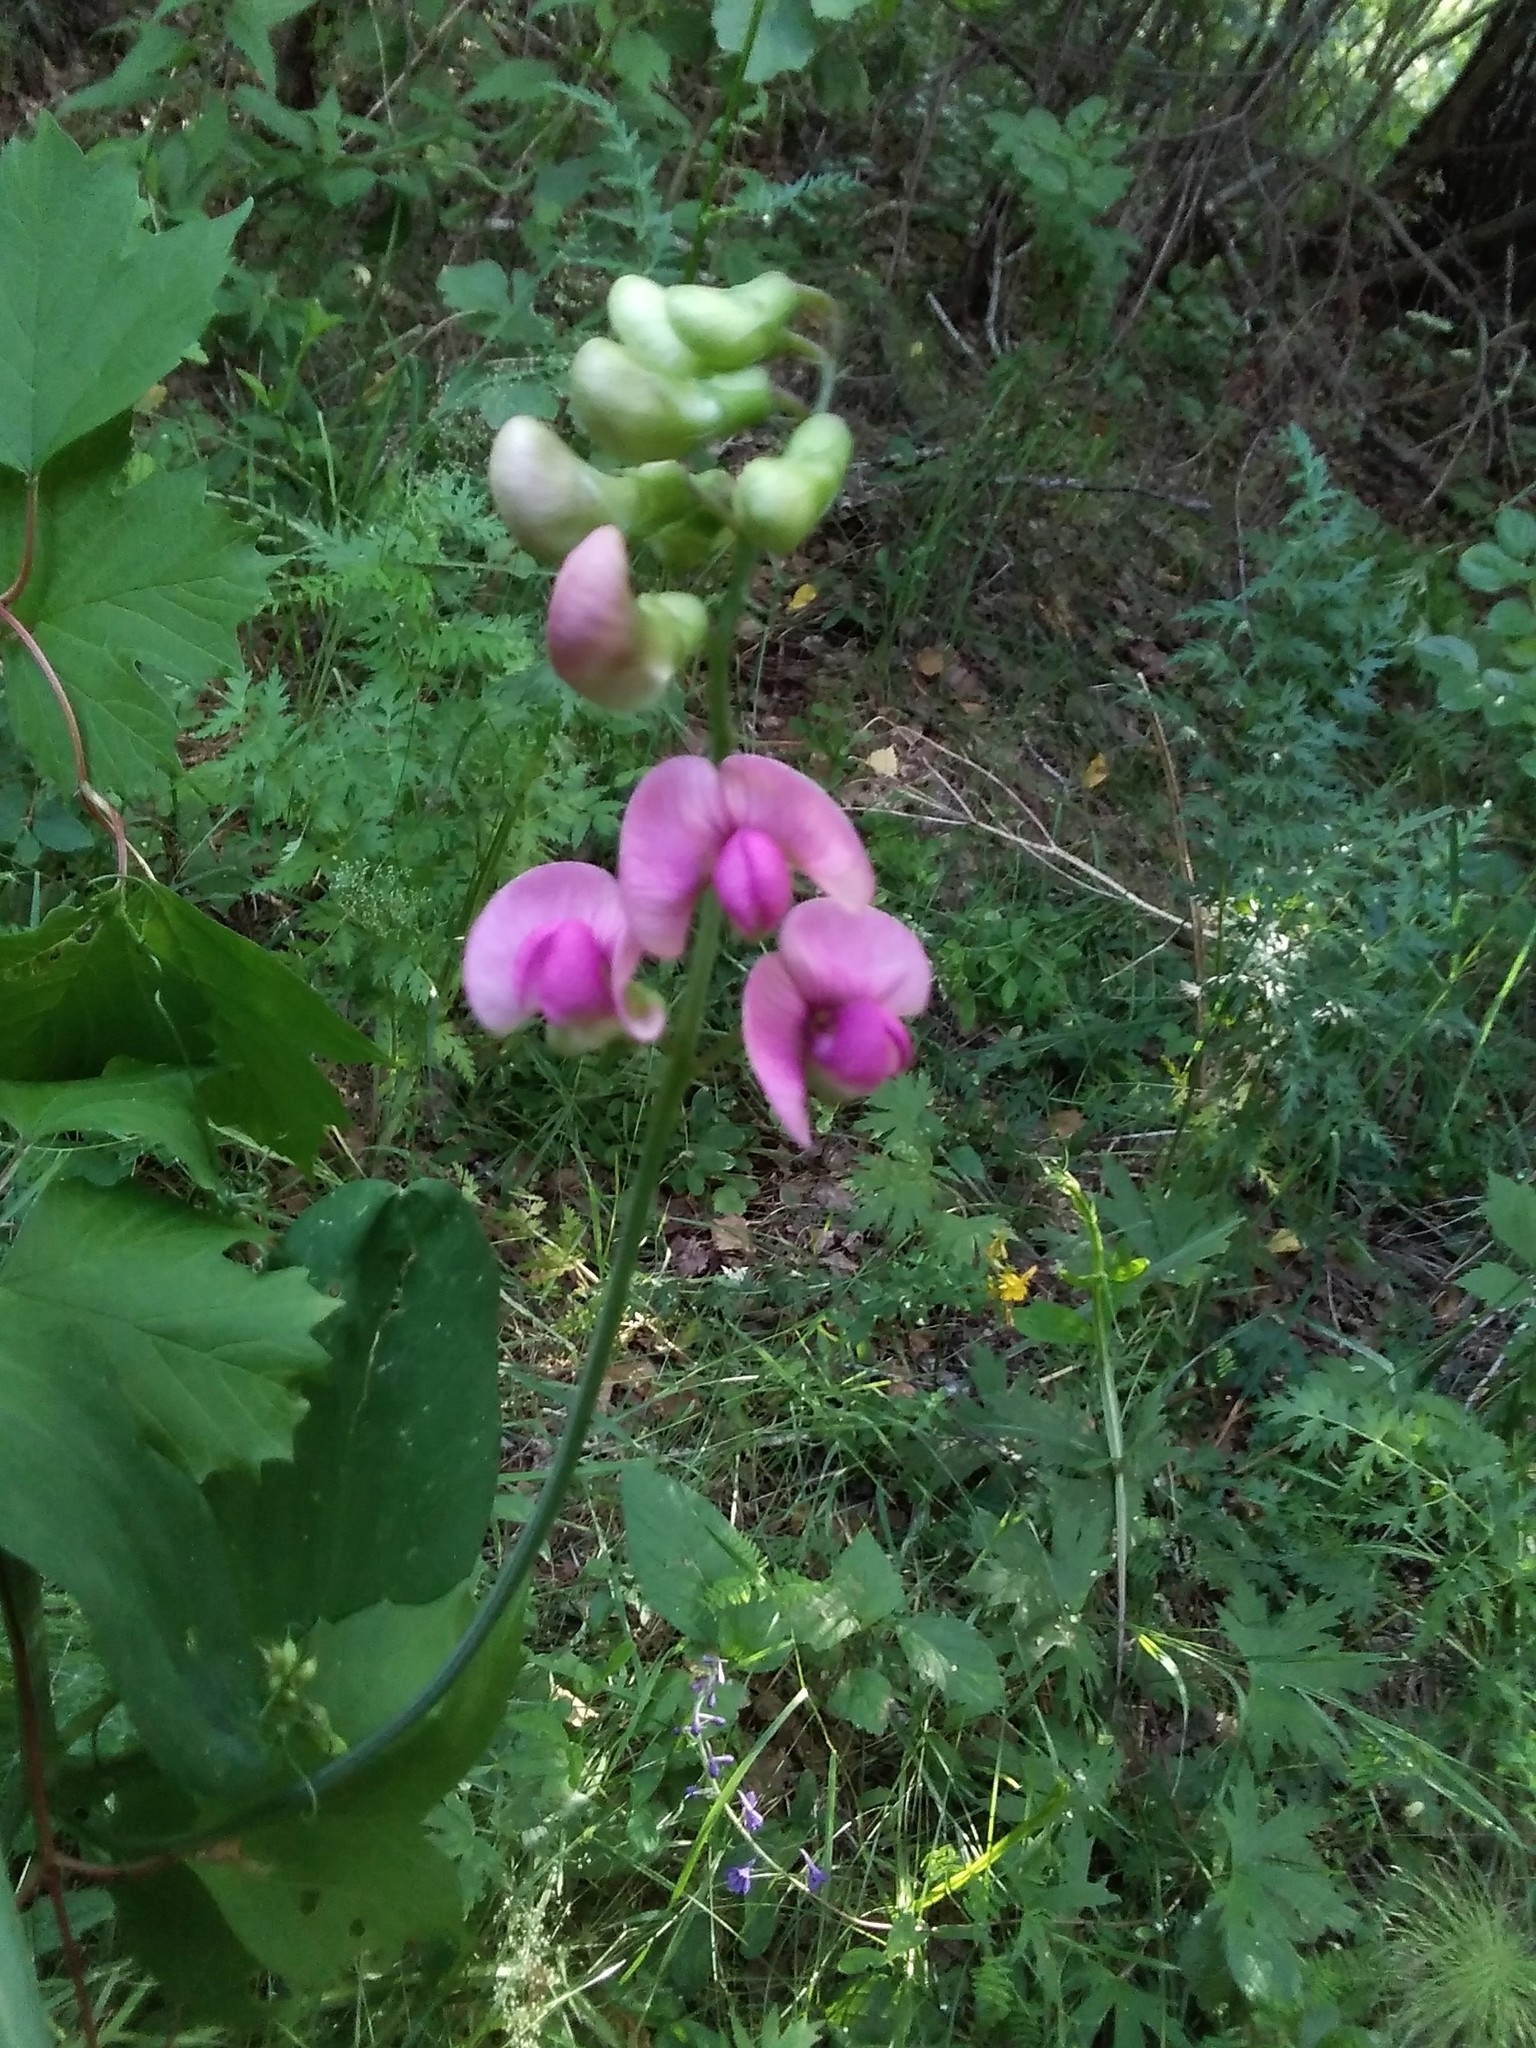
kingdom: Plantae
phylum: Tracheophyta
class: Magnoliopsida
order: Fabales
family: Fabaceae
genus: Lathyrus
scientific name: Lathyrus sylvestris
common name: Flat pea
